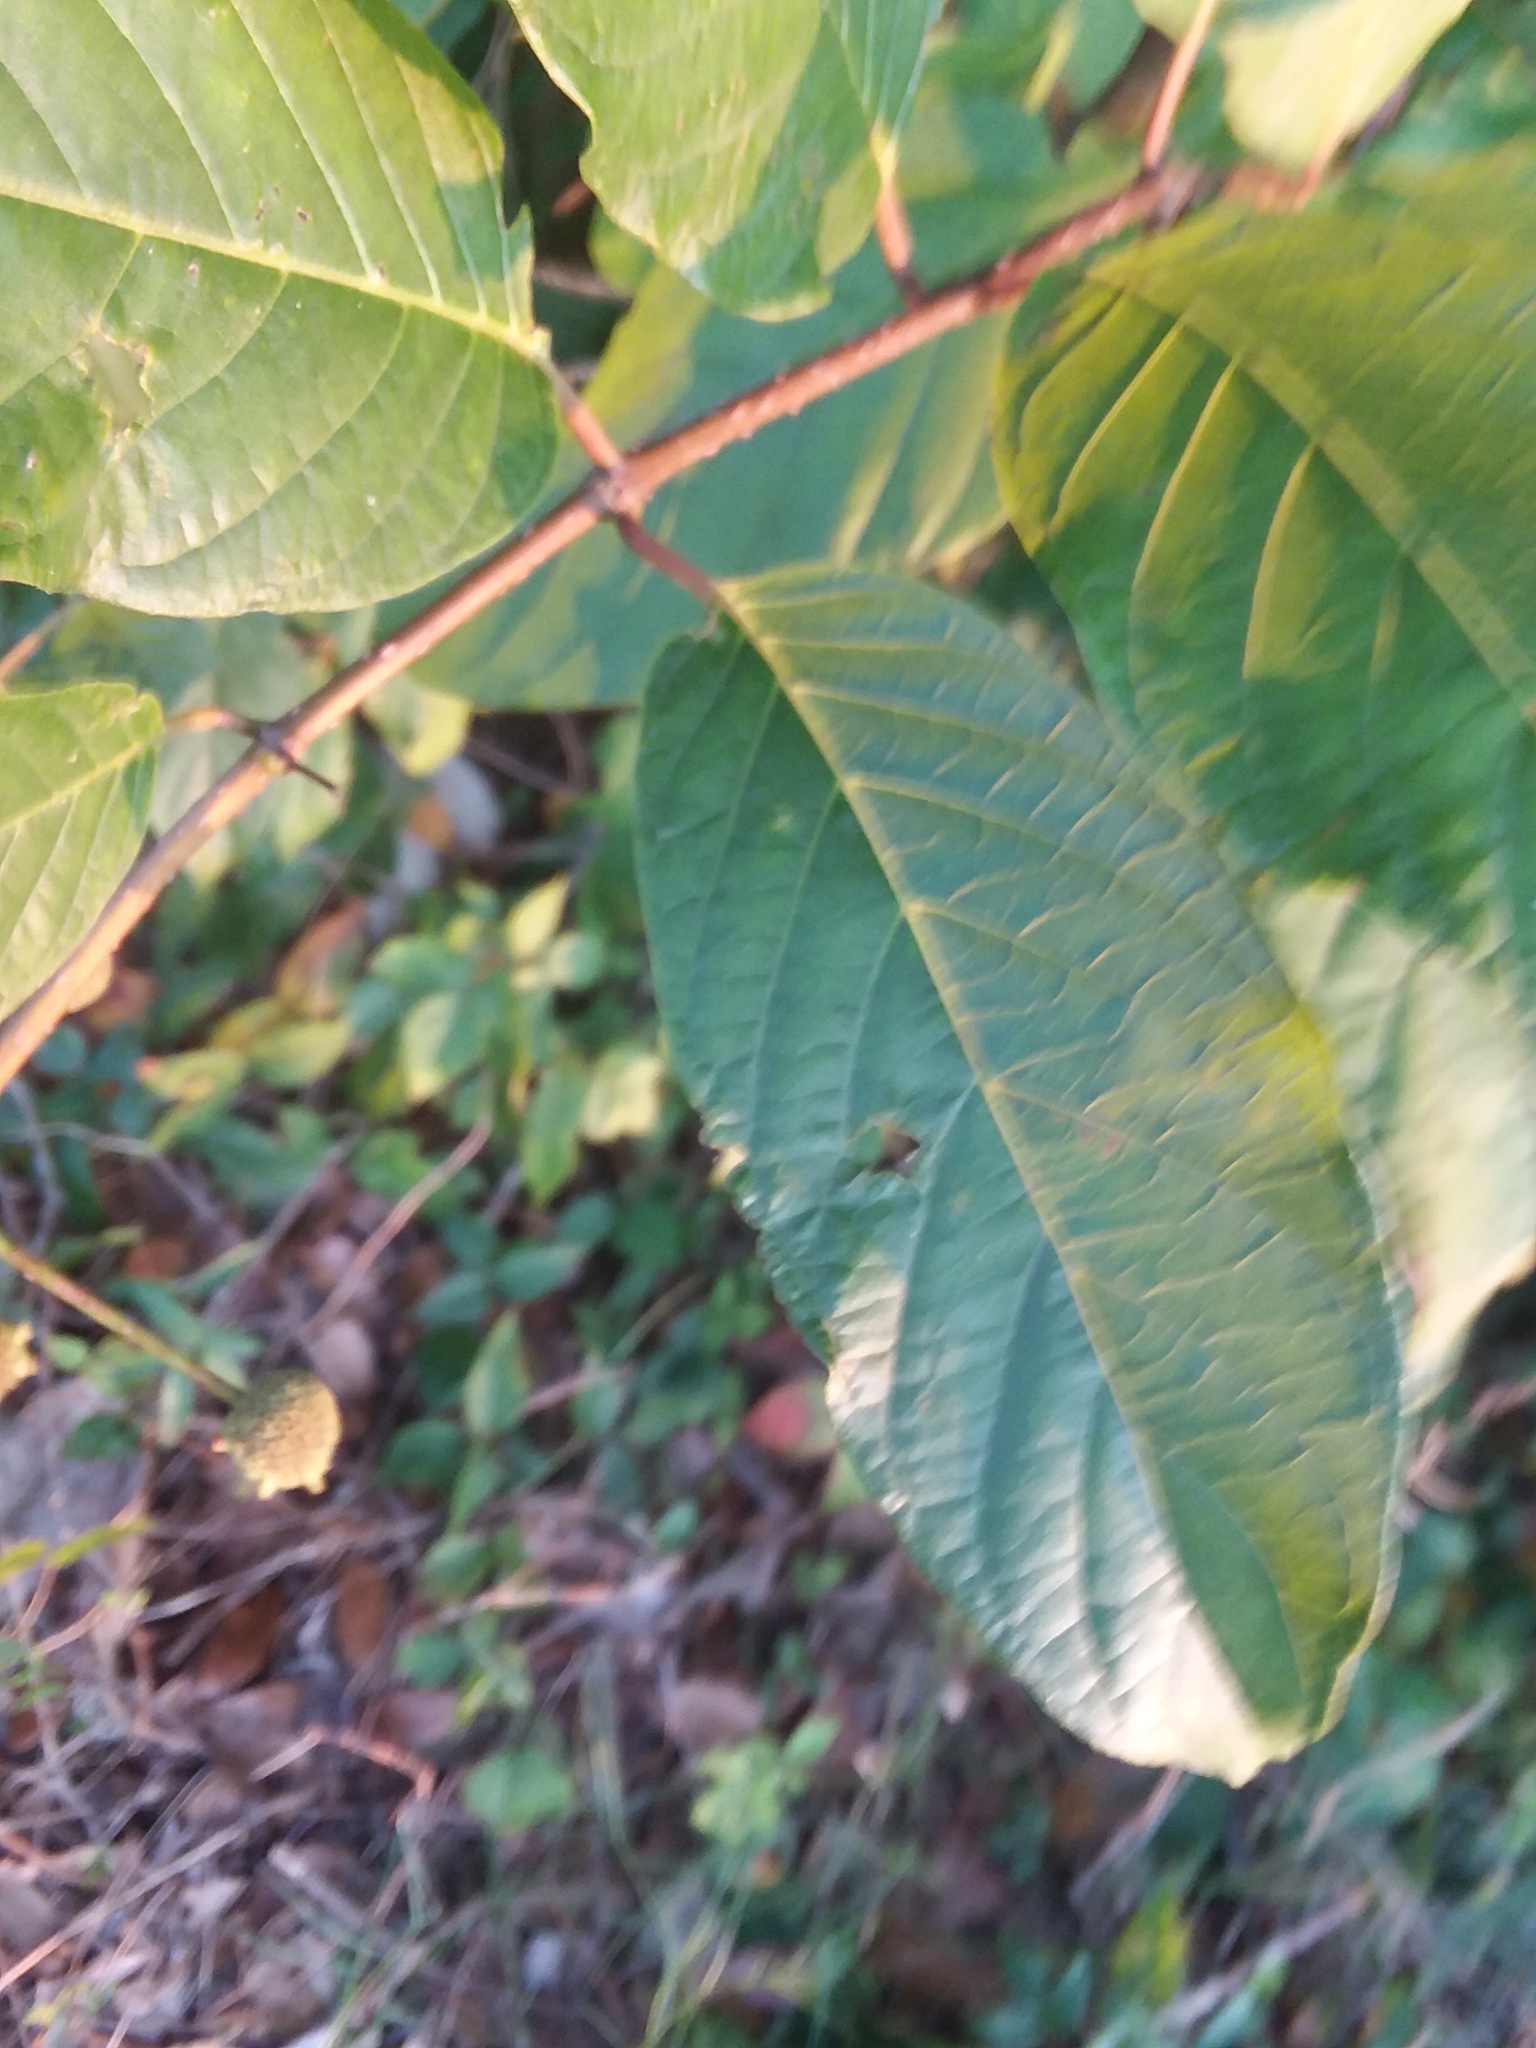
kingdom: Plantae
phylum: Tracheophyta
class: Magnoliopsida
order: Gentianales
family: Rubiaceae
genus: Cephalanthus
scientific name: Cephalanthus occidentalis
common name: Button-willow
